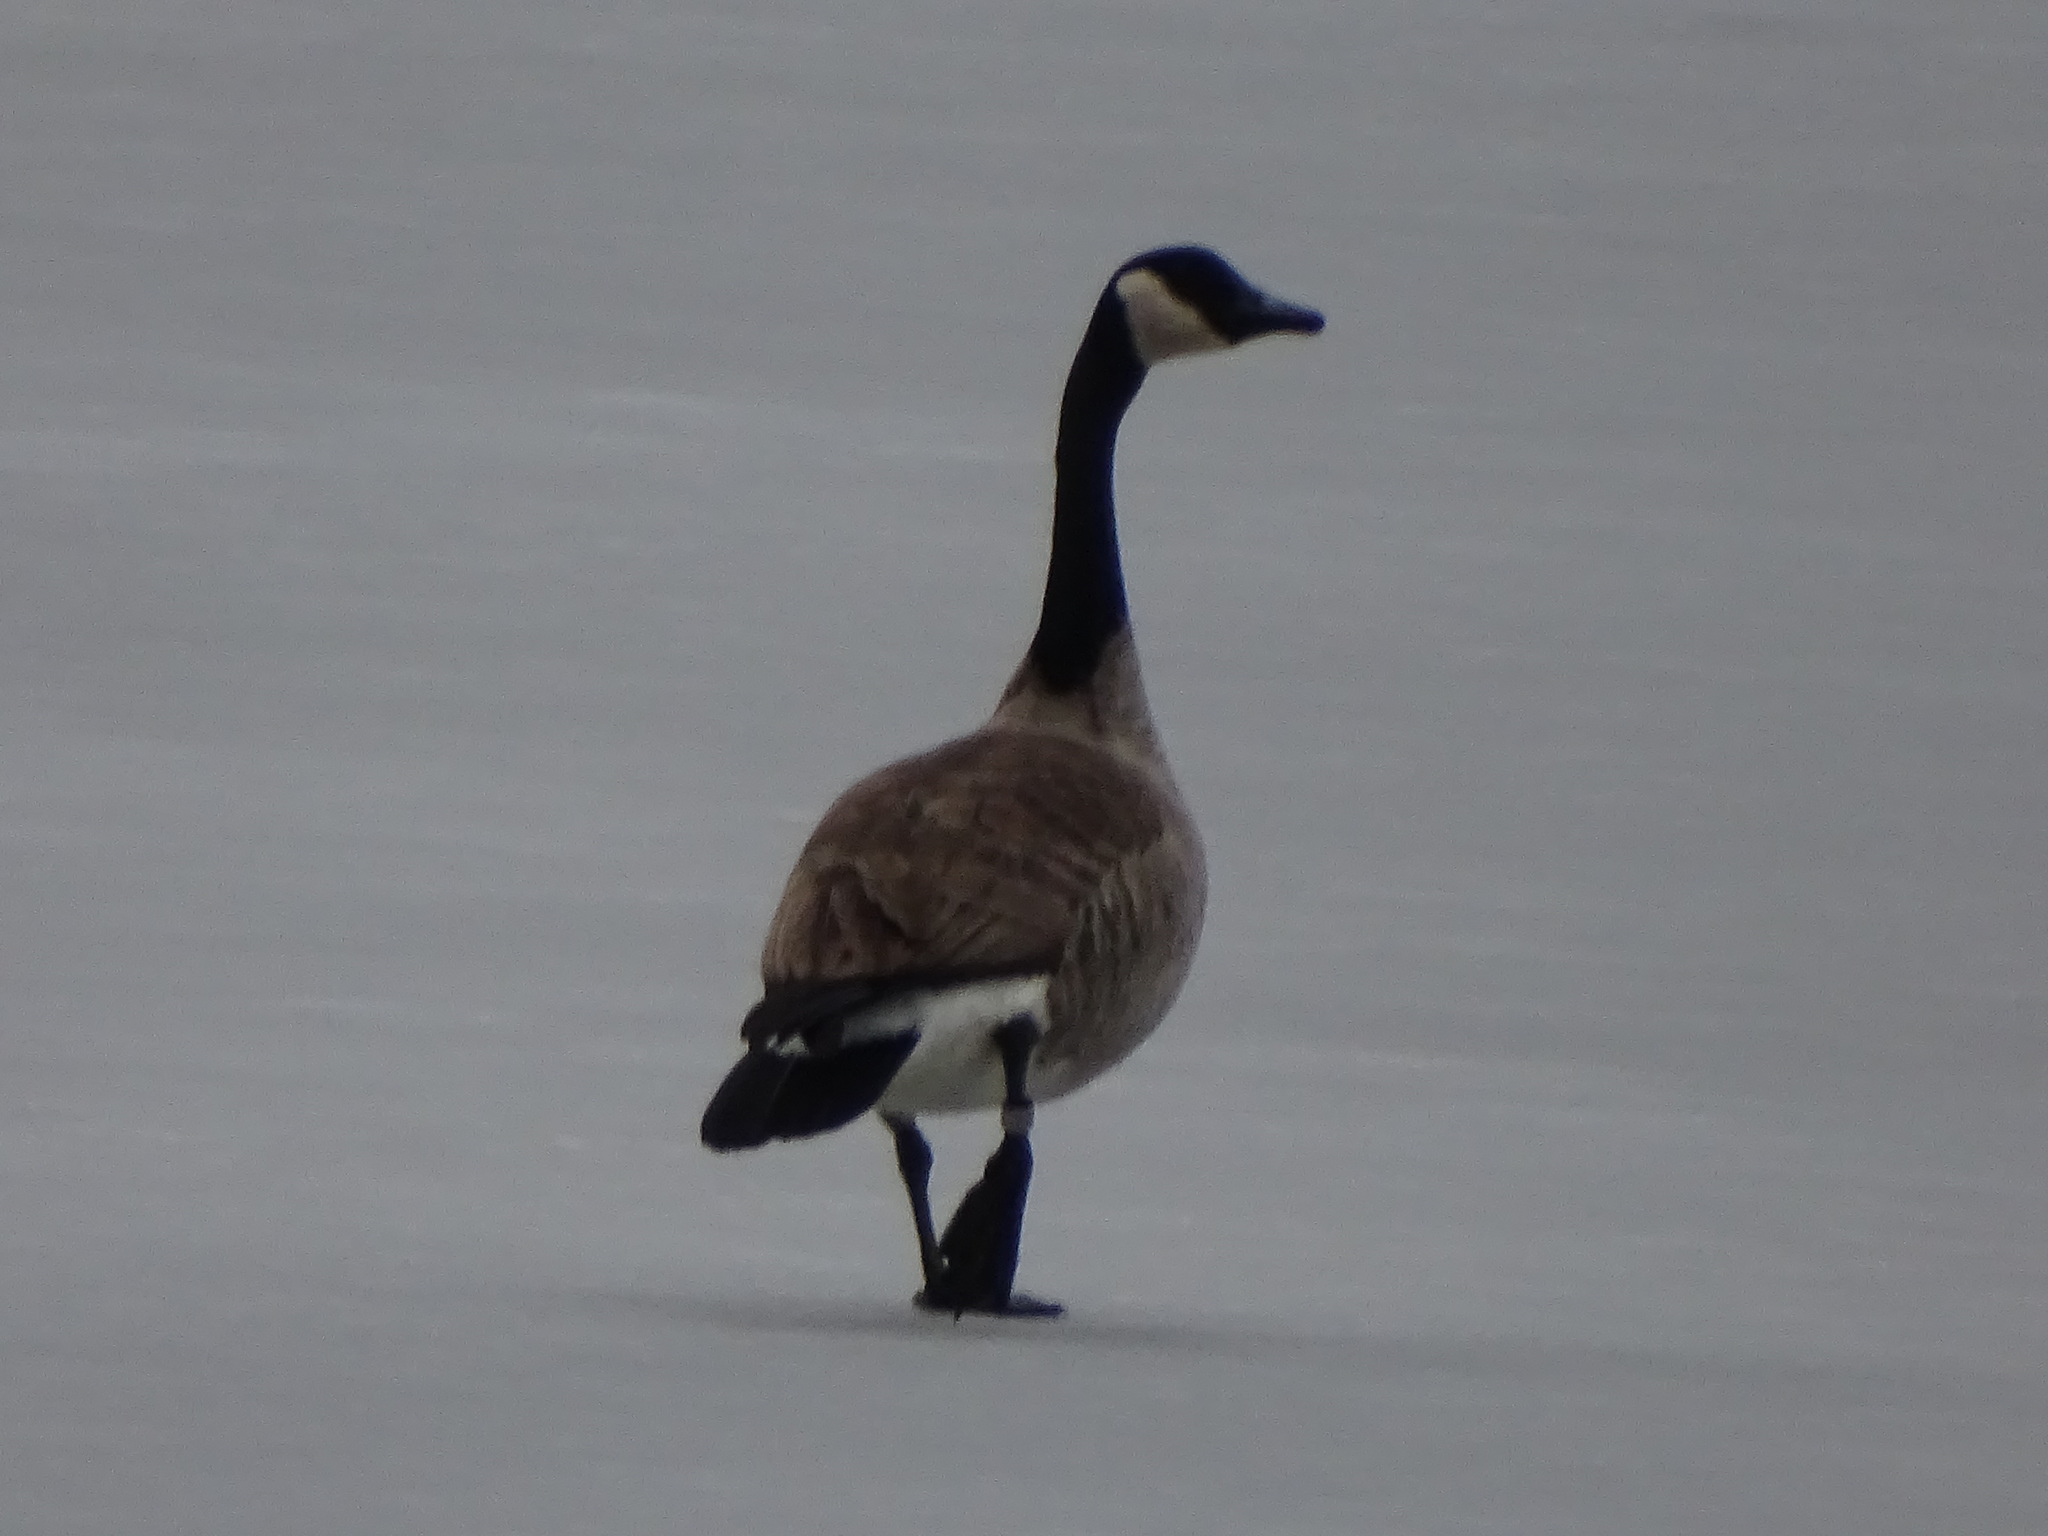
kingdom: Animalia
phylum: Chordata
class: Aves
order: Anseriformes
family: Anatidae
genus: Branta
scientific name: Branta canadensis
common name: Canada goose
